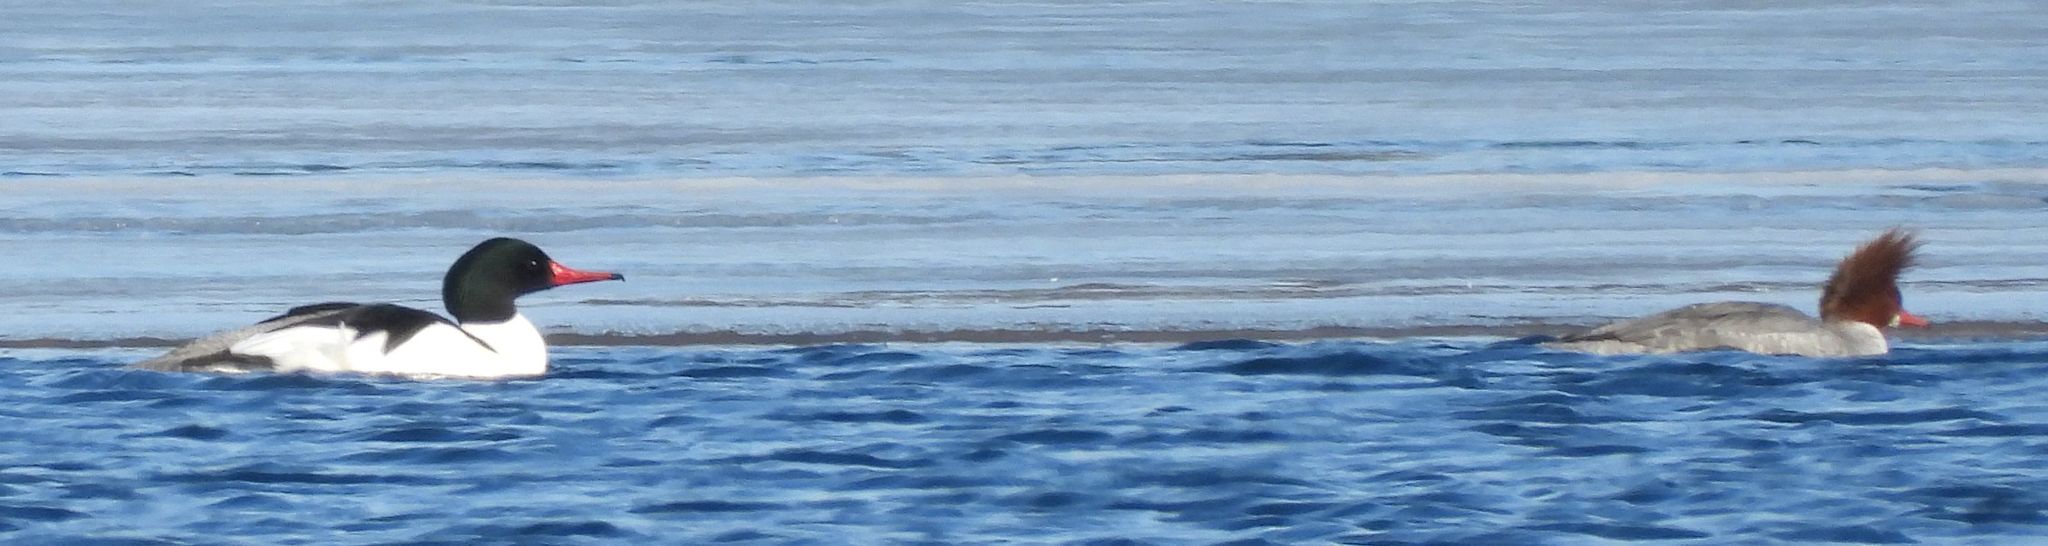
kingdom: Animalia
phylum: Chordata
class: Aves
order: Anseriformes
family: Anatidae
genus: Mergus
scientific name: Mergus merganser
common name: Common merganser
